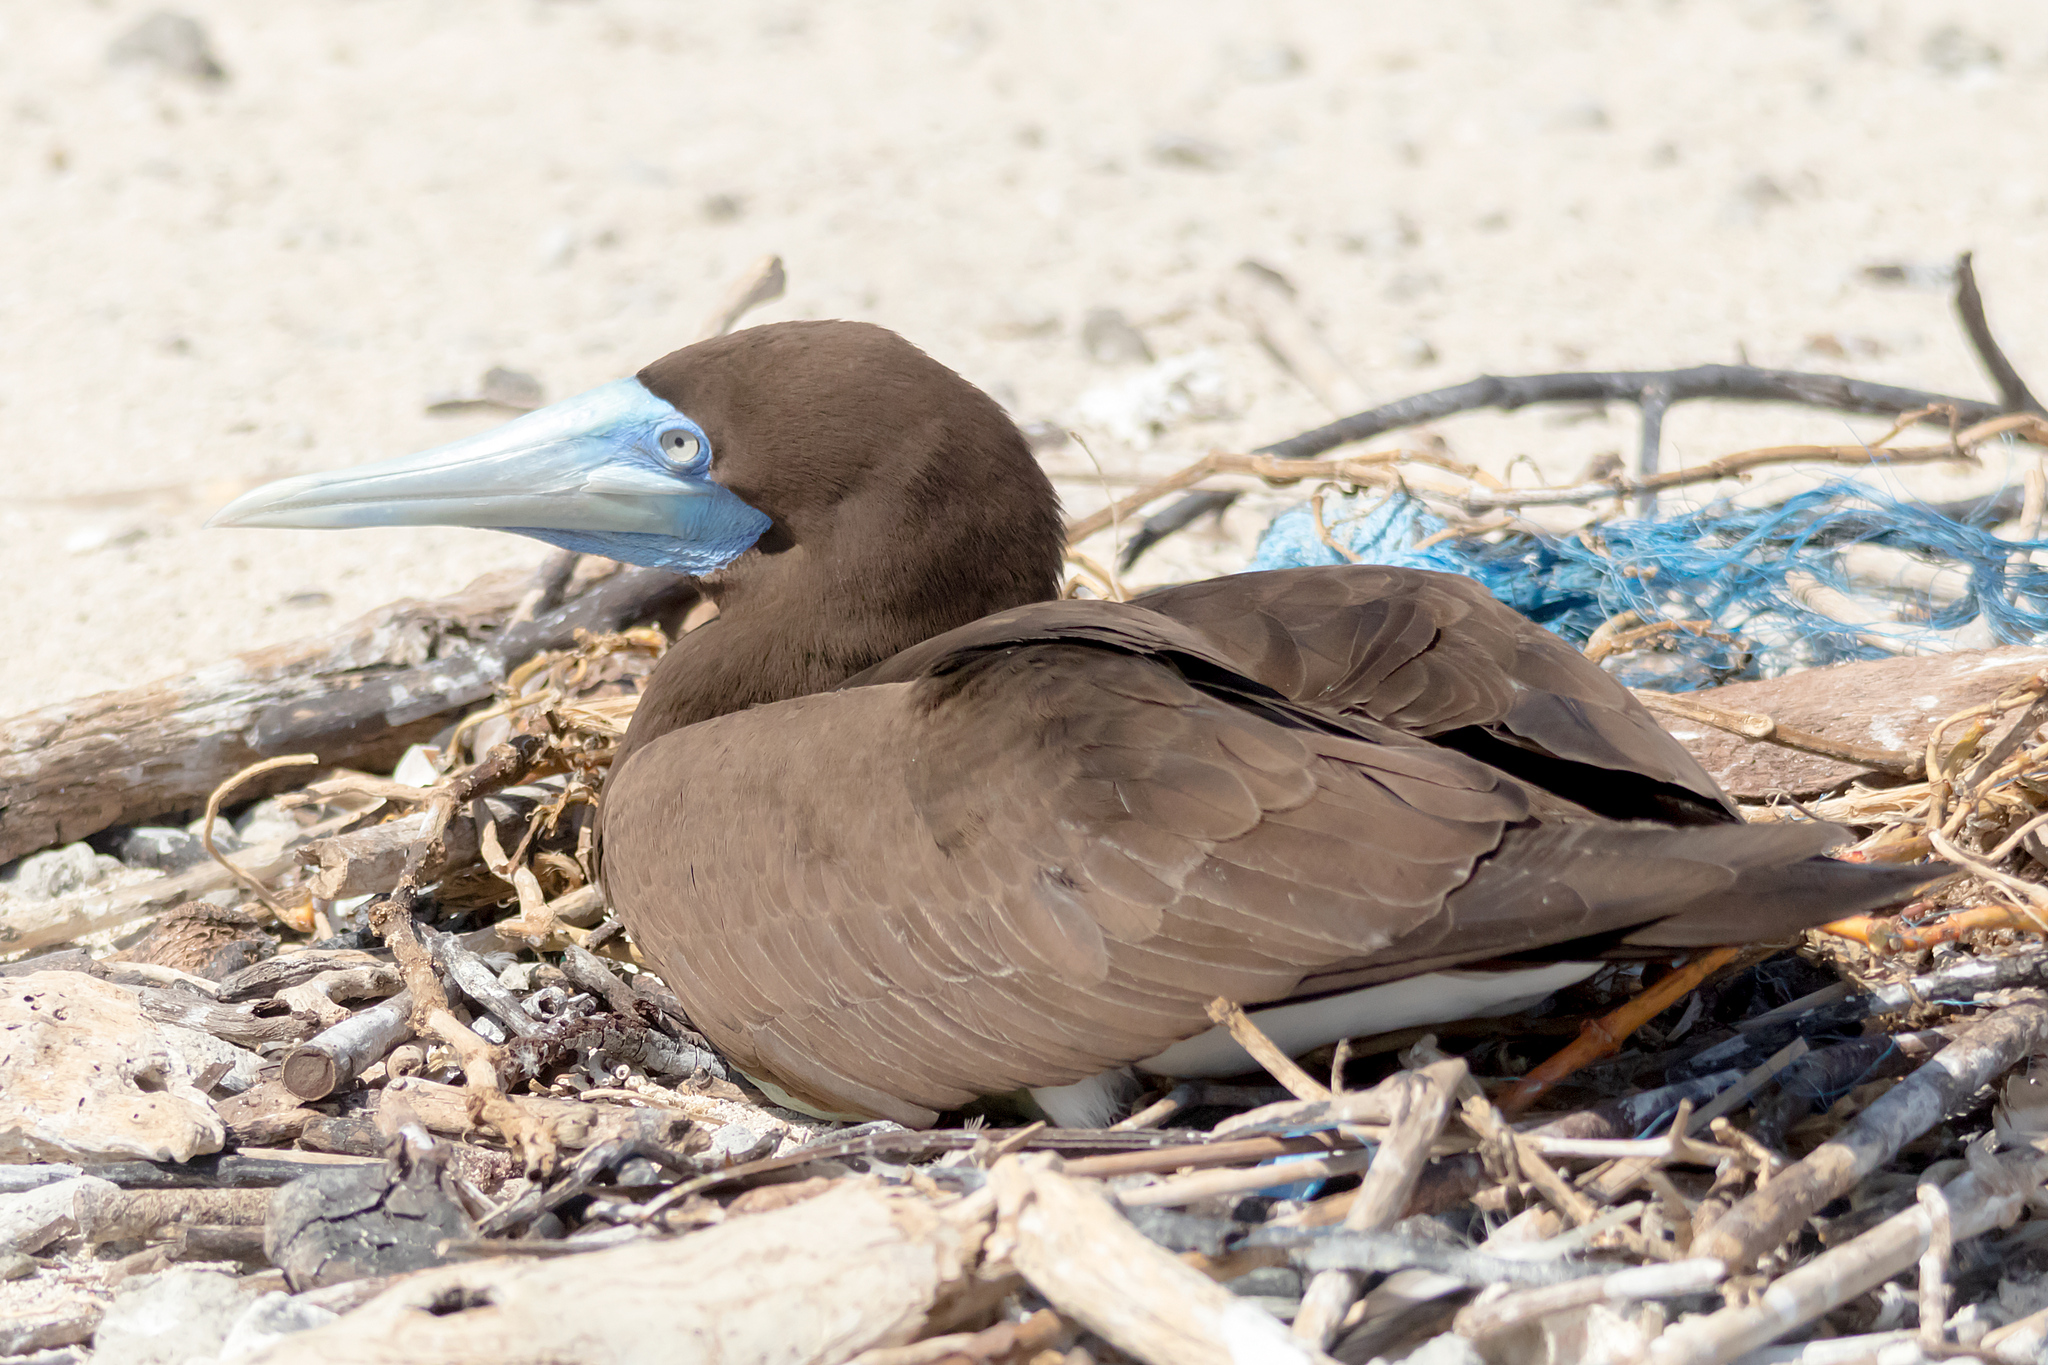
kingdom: Animalia
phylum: Chordata
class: Aves
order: Suliformes
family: Sulidae
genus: Sula
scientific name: Sula leucogaster
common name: Brown booby
